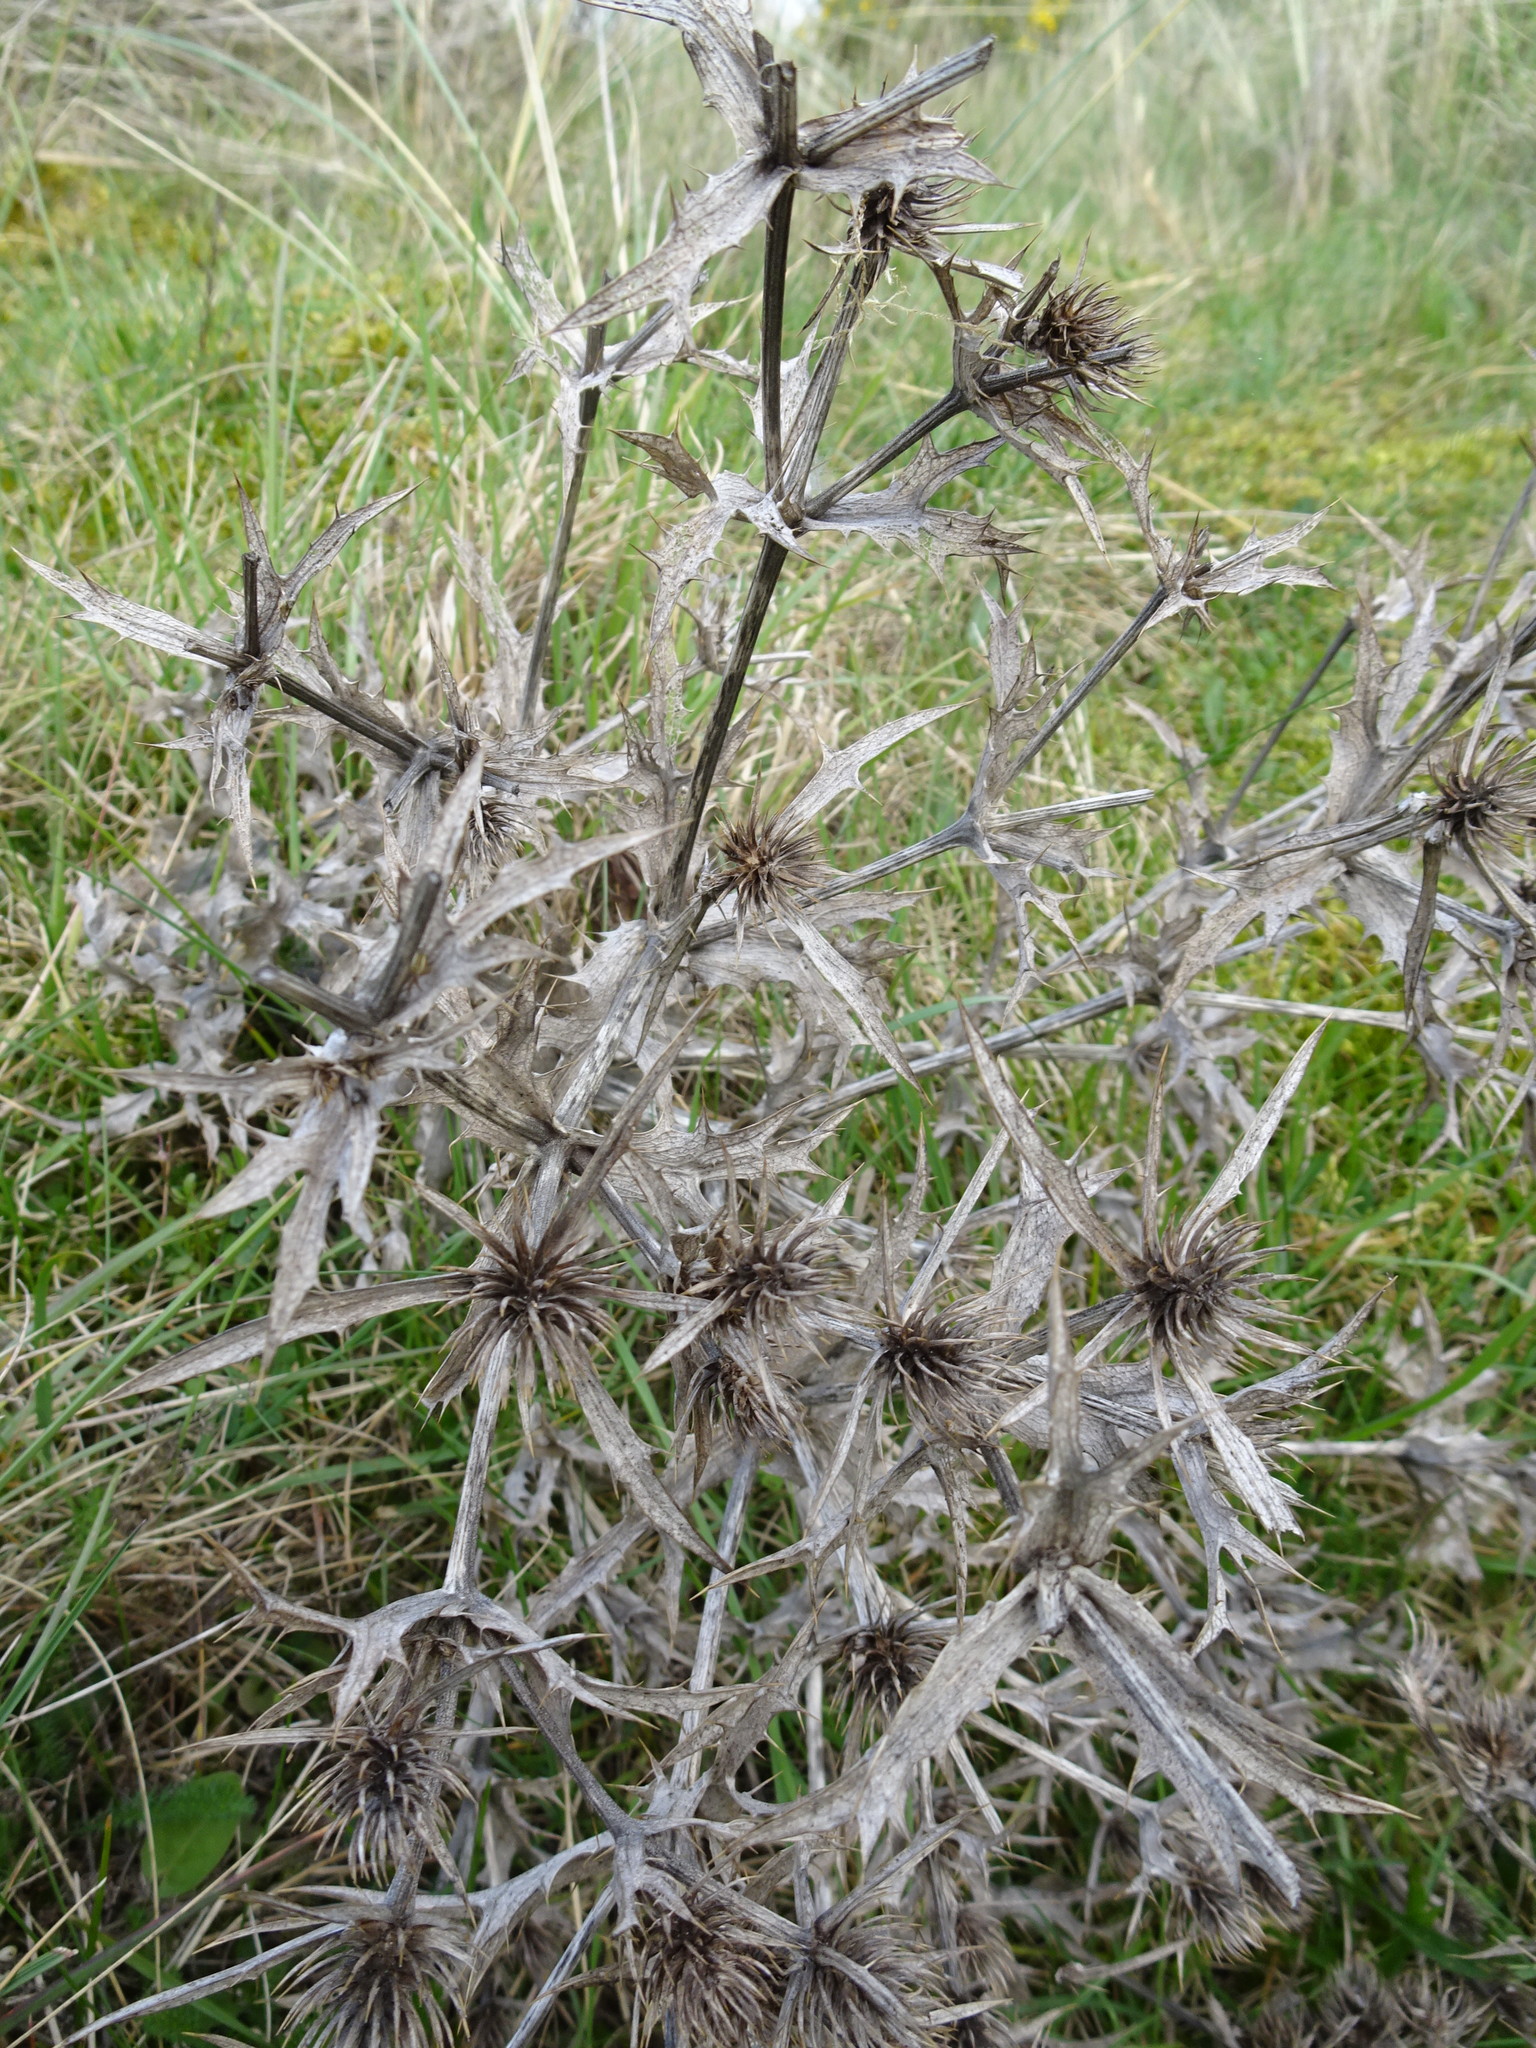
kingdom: Plantae
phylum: Tracheophyta
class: Magnoliopsida
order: Apiales
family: Apiaceae
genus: Eryngium
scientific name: Eryngium campestre
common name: Field eryngo
